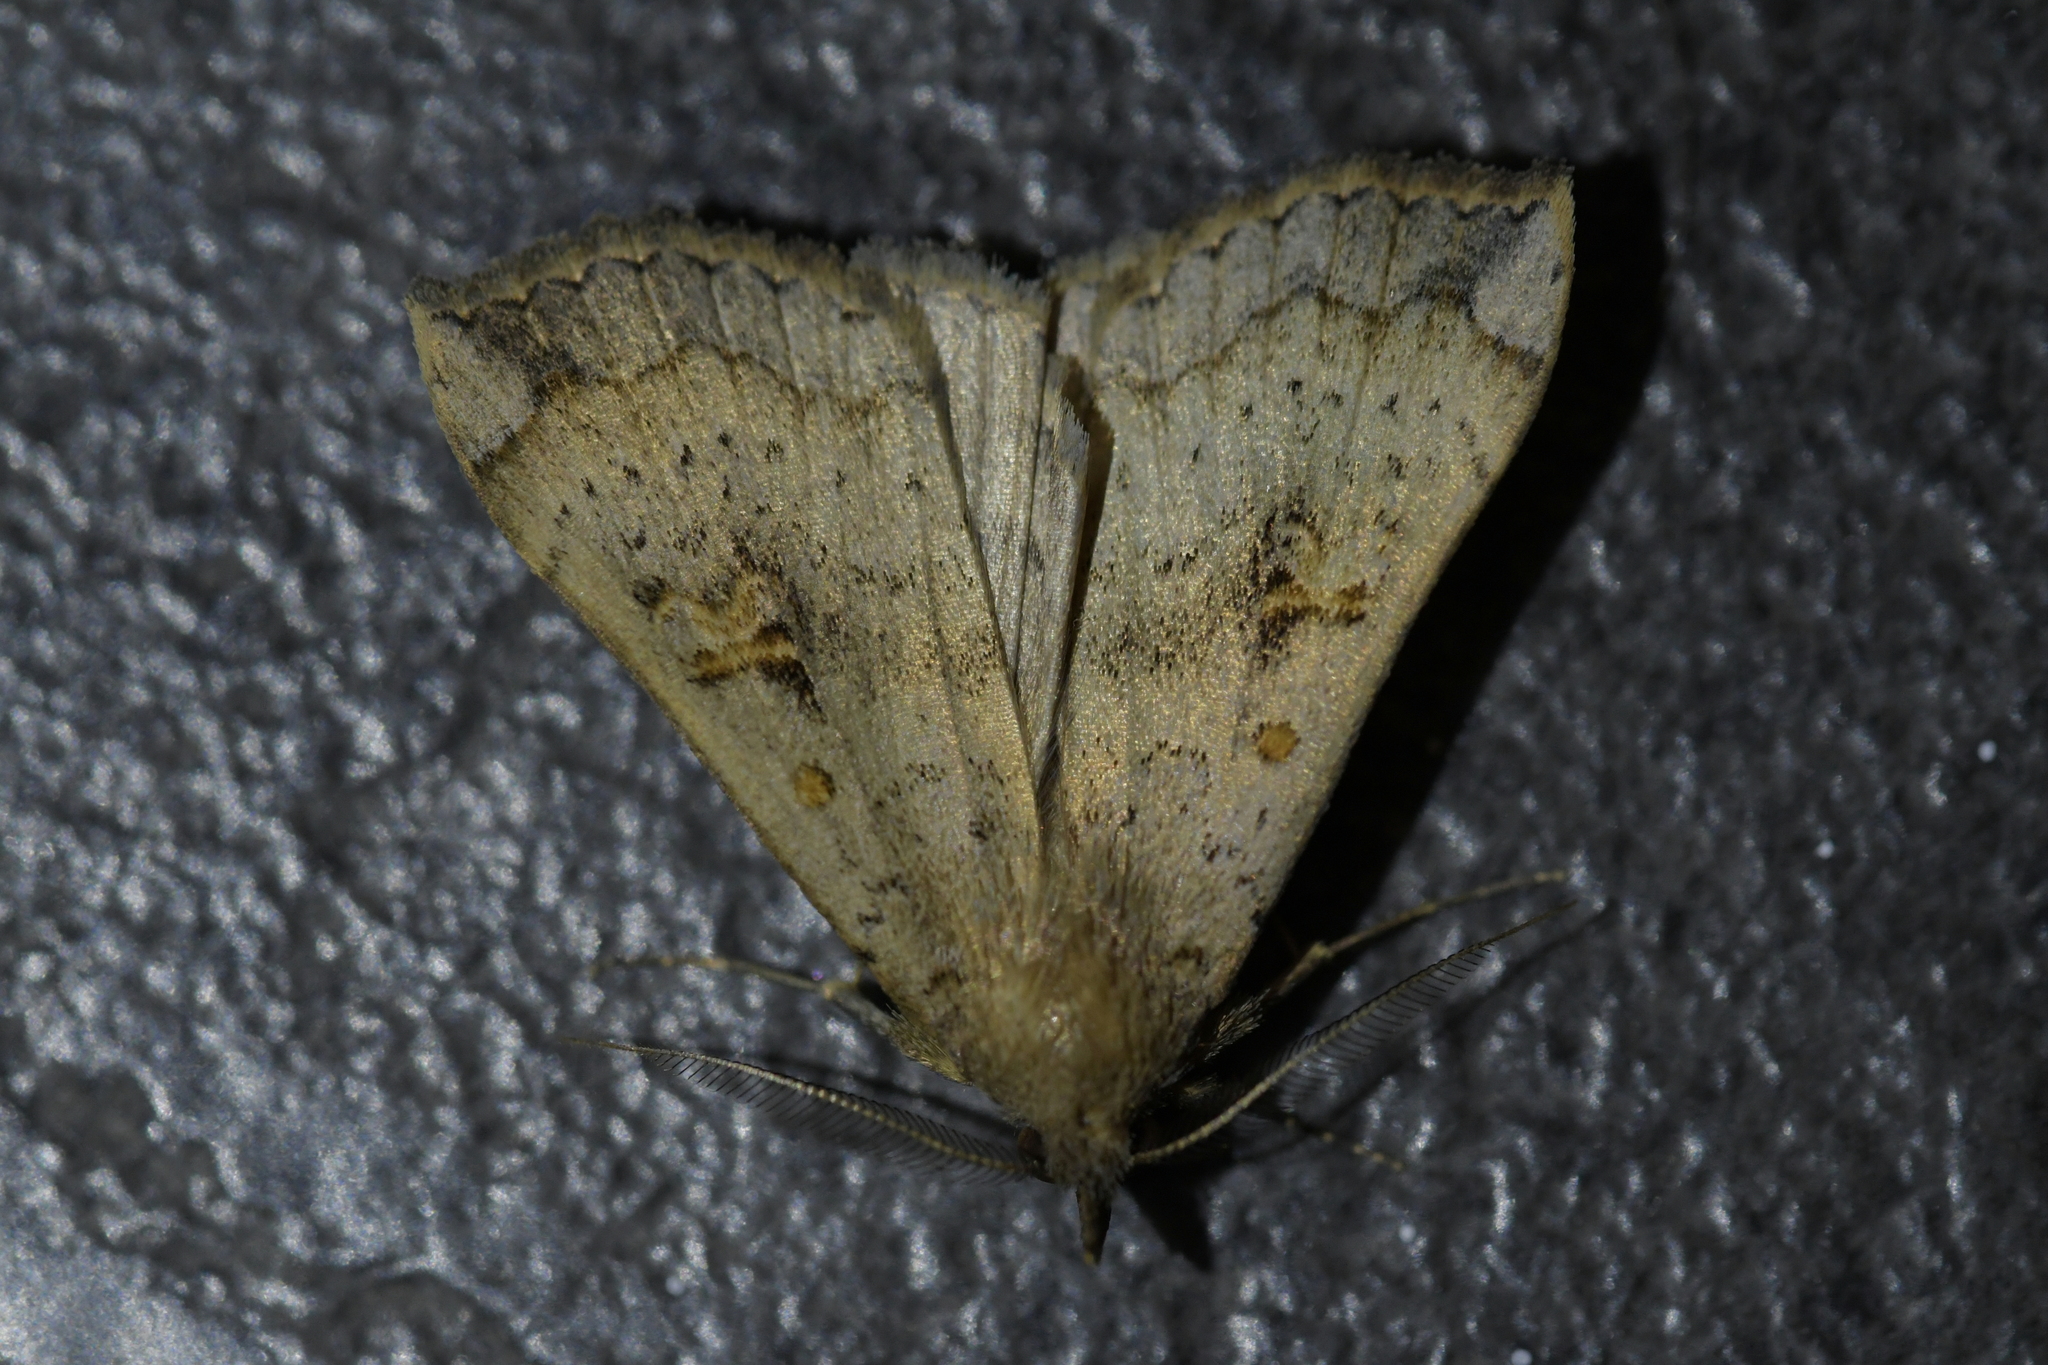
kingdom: Animalia
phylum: Arthropoda
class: Insecta
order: Lepidoptera
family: Erebidae
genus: Rhapsa
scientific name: Rhapsa scotosialis
